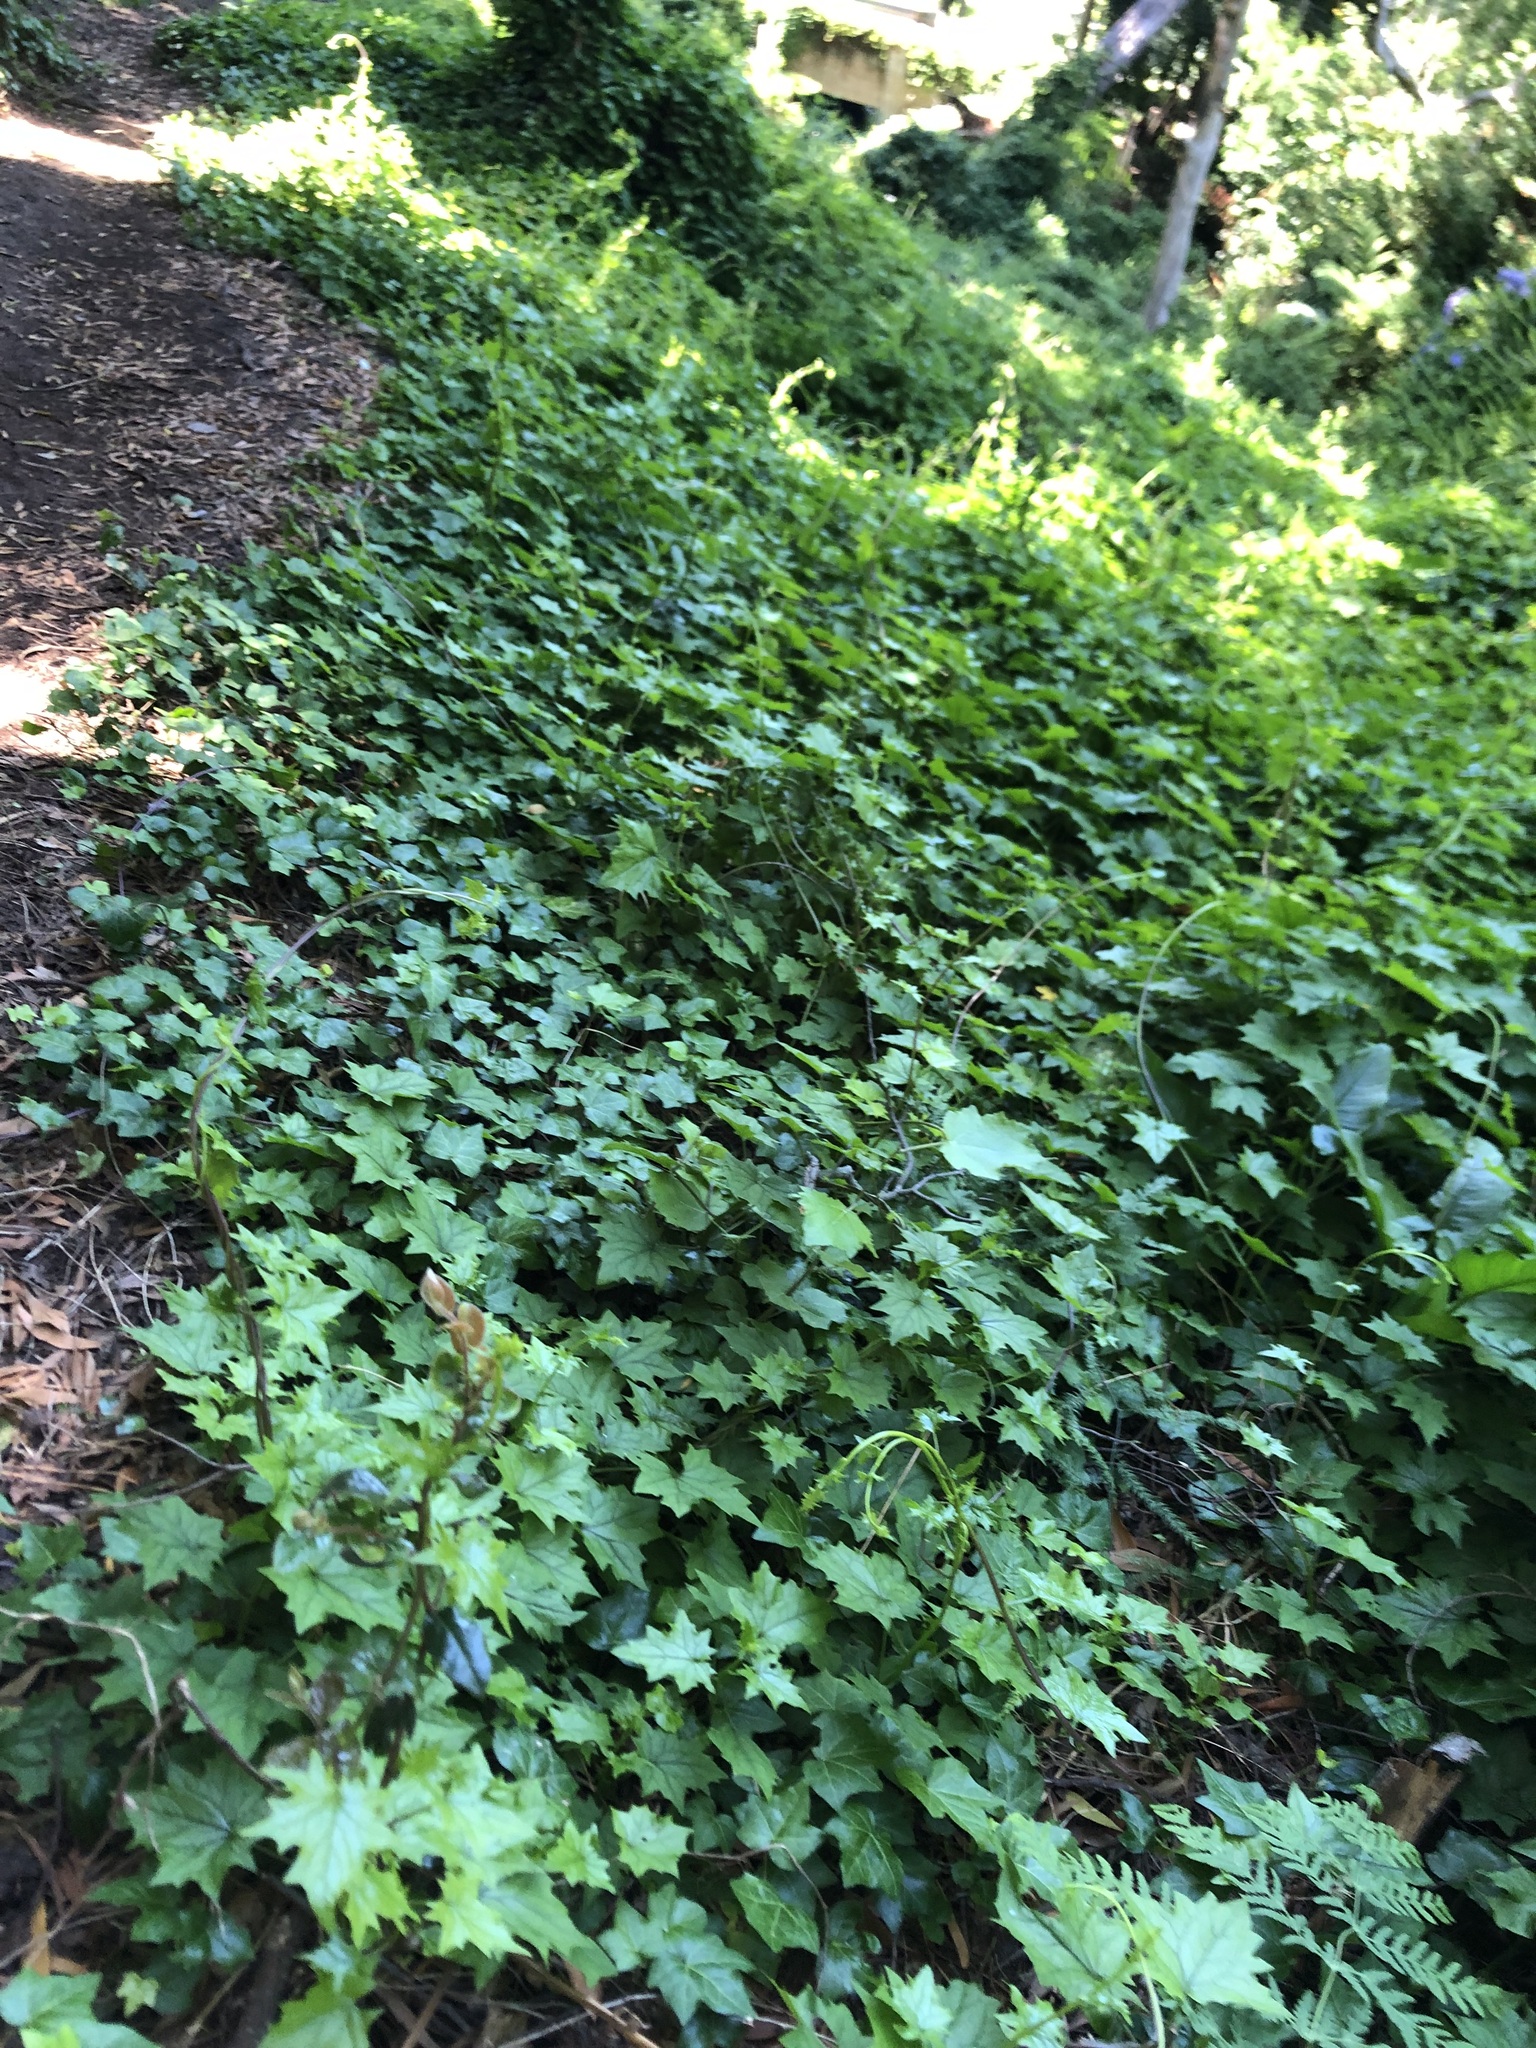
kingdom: Plantae
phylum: Tracheophyta
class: Magnoliopsida
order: Asterales
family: Asteraceae
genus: Senecio
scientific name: Senecio tamoides
